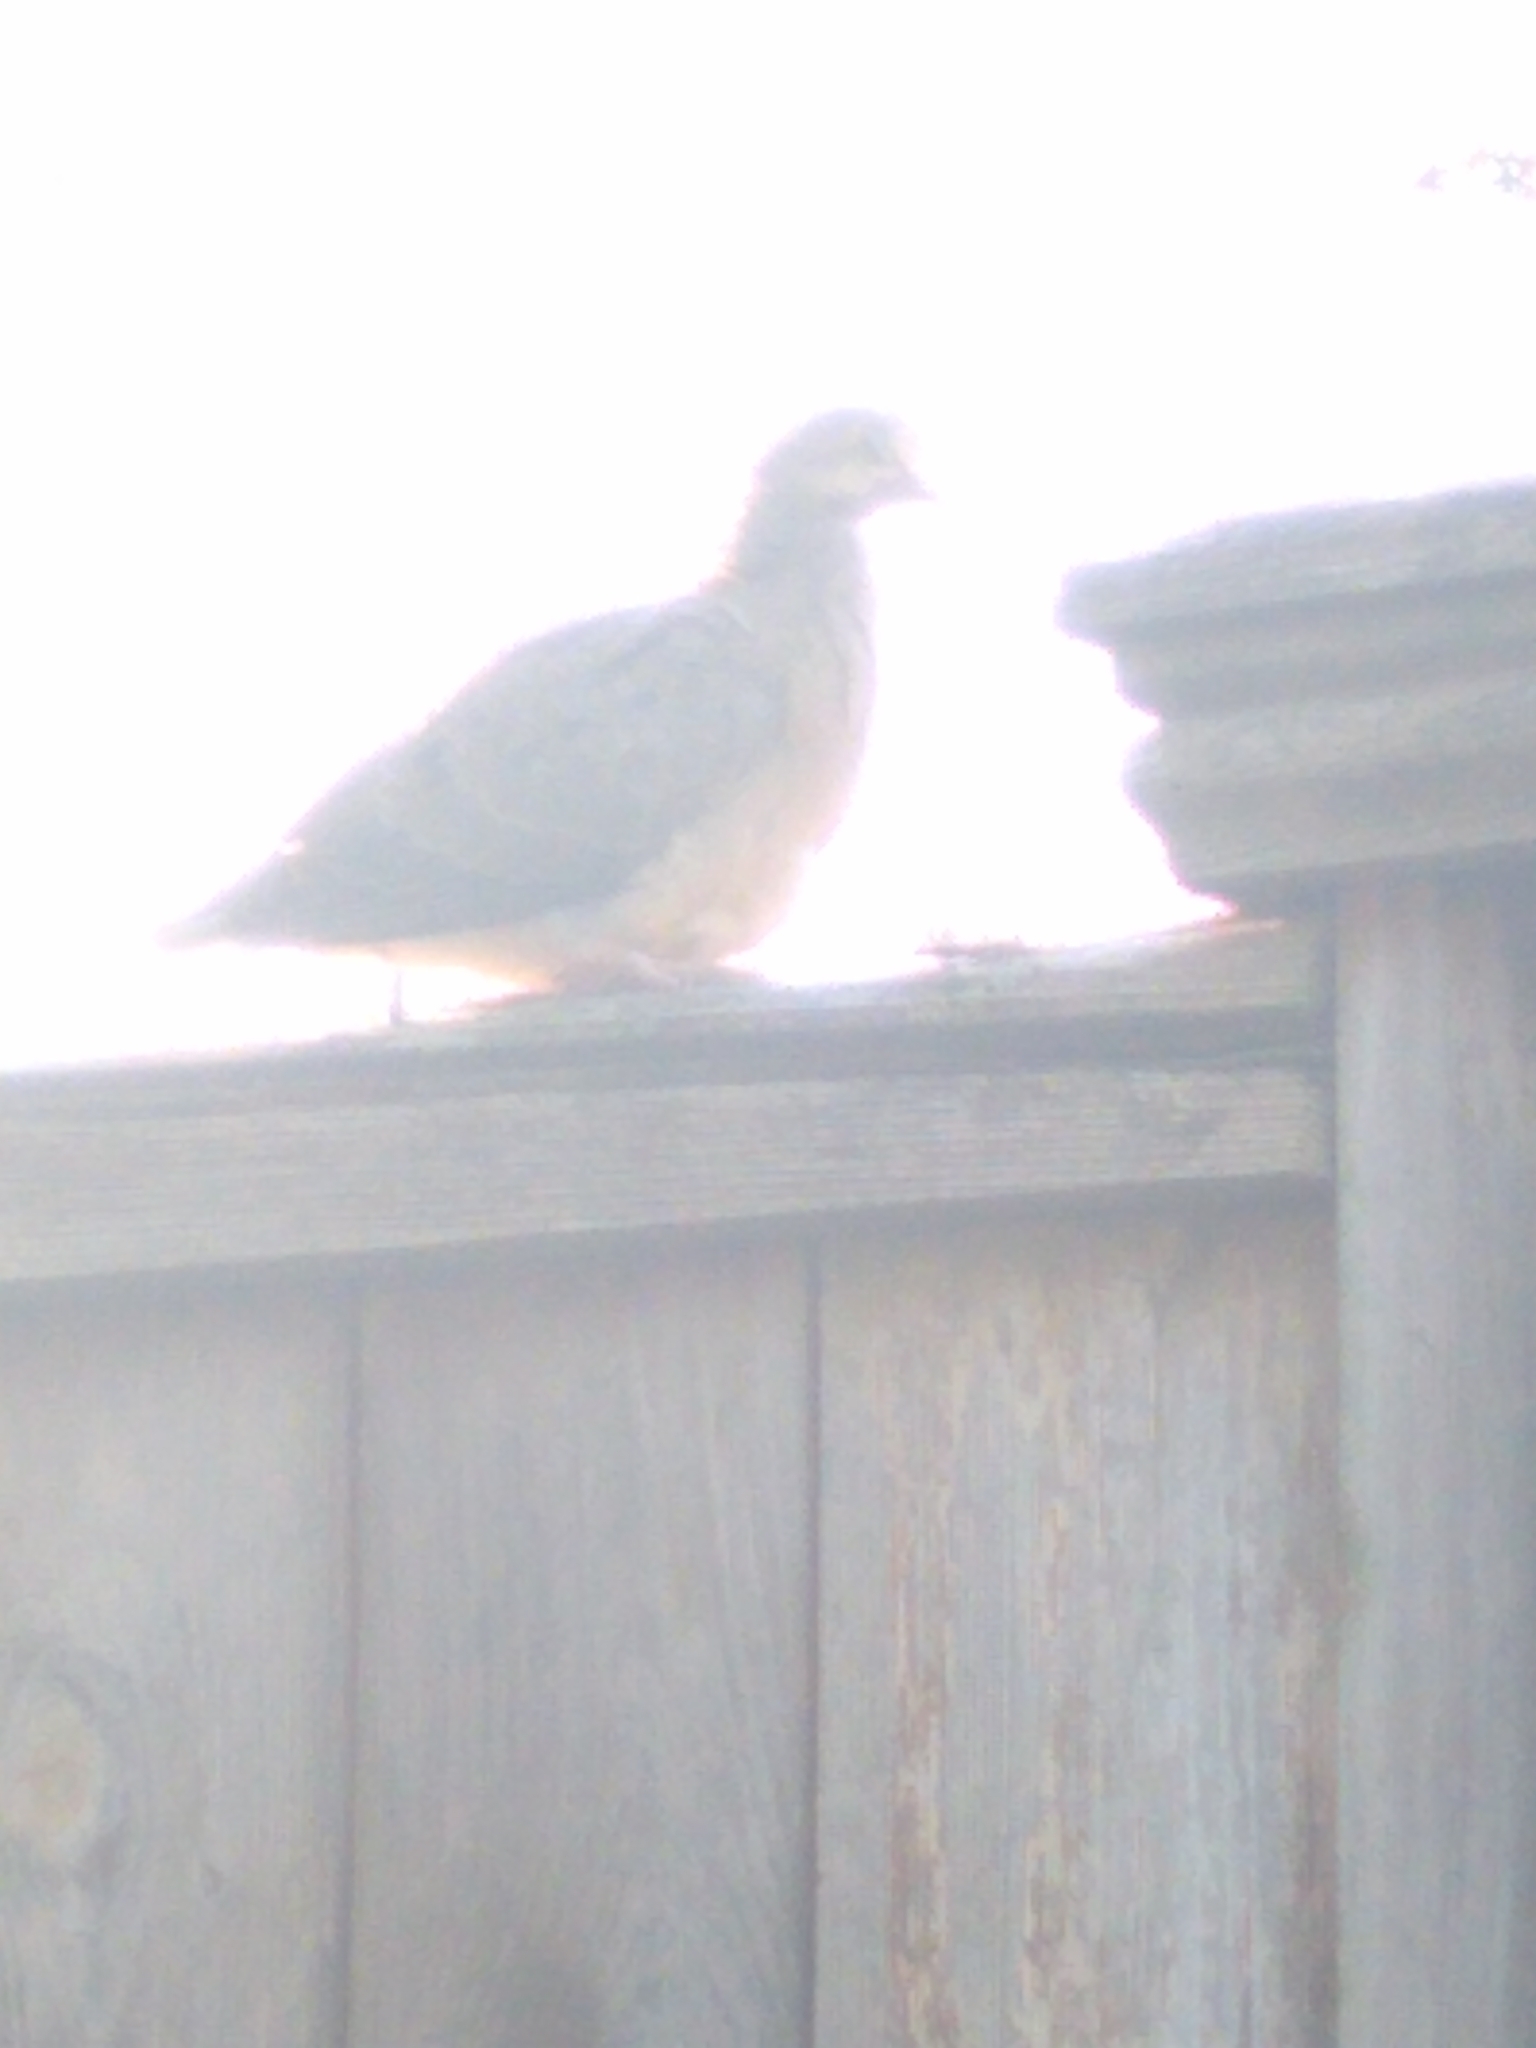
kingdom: Animalia
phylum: Chordata
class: Aves
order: Columbiformes
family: Columbidae
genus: Zenaida
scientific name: Zenaida macroura
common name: Mourning dove
